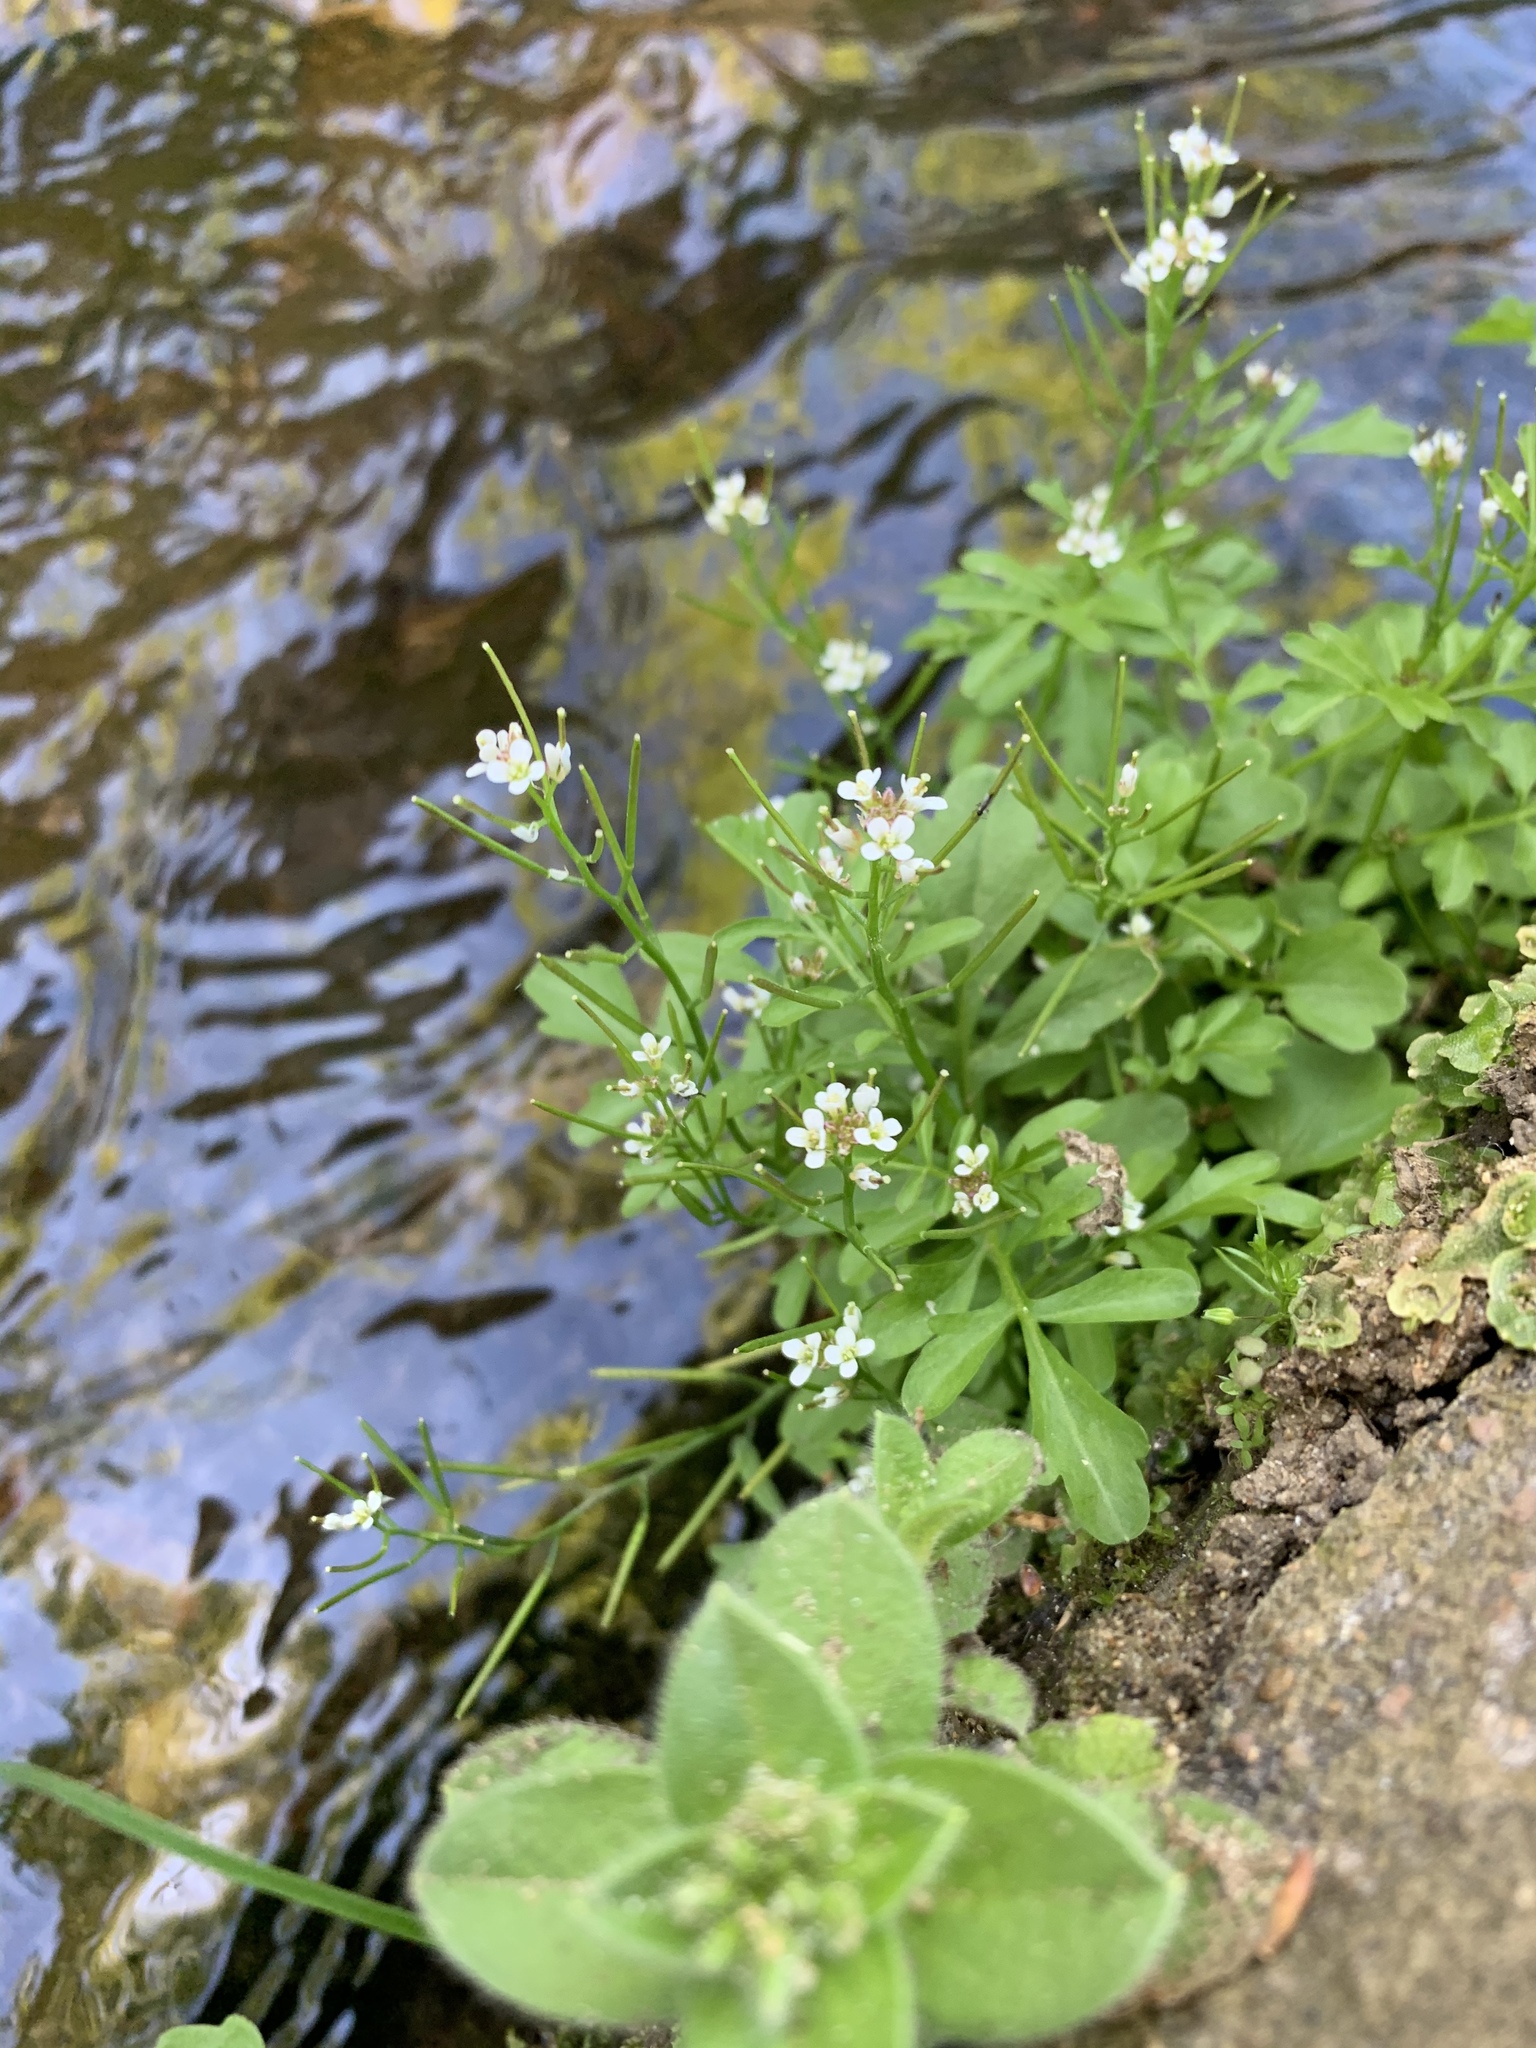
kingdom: Plantae
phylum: Tracheophyta
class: Magnoliopsida
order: Brassicales
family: Brassicaceae
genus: Cardamine
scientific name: Cardamine occulta
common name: Asian wavy bittercress
